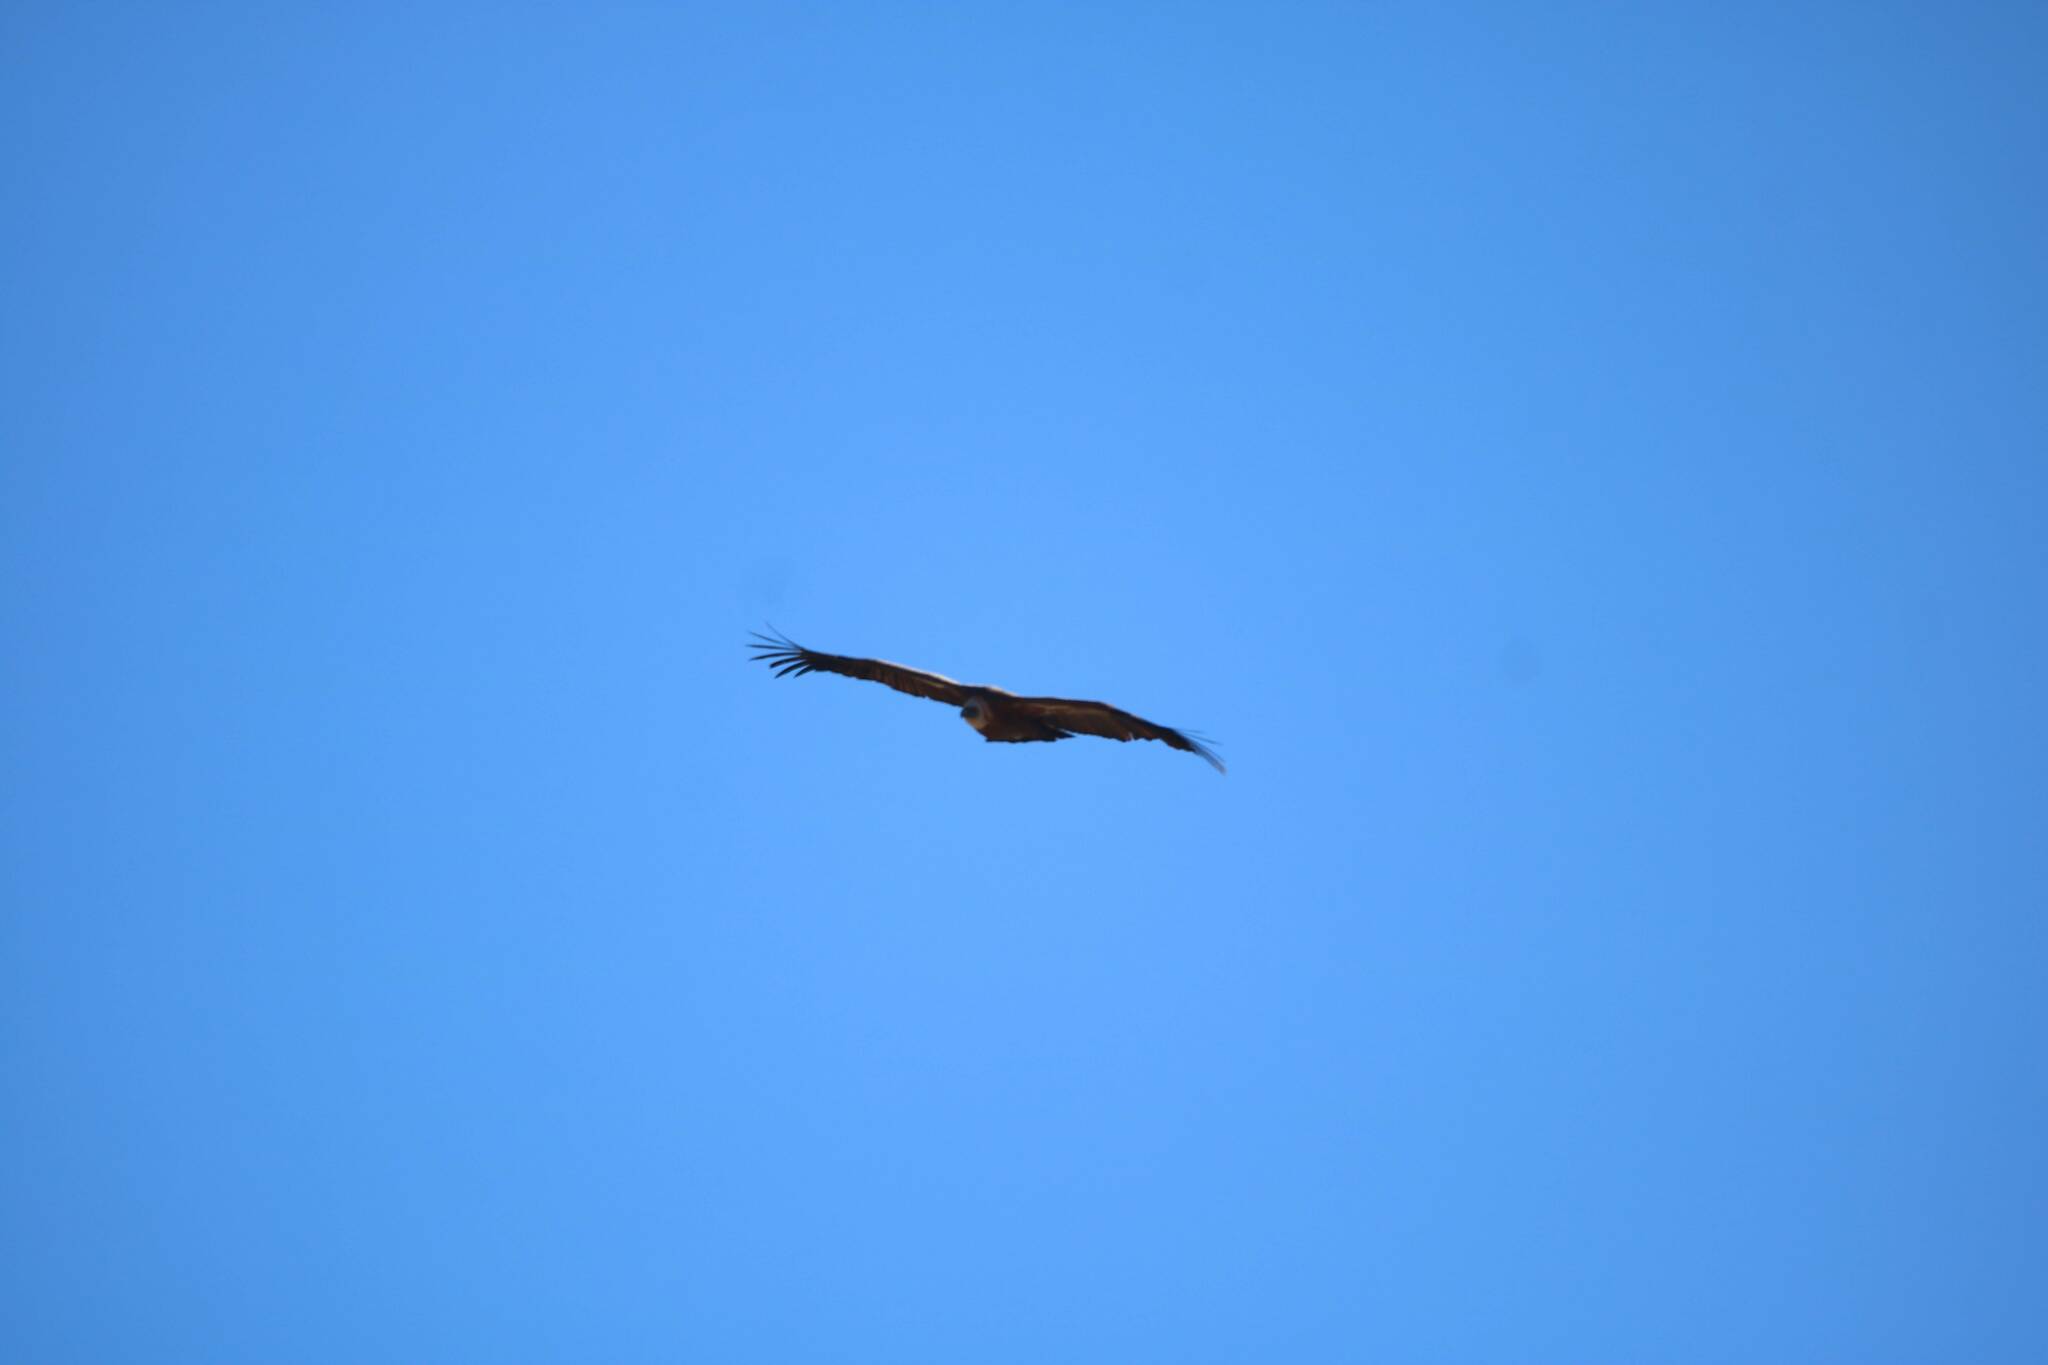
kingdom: Animalia
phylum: Chordata
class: Aves
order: Accipitriformes
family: Accipitridae
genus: Gyps
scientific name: Gyps fulvus
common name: Griffon vulture
